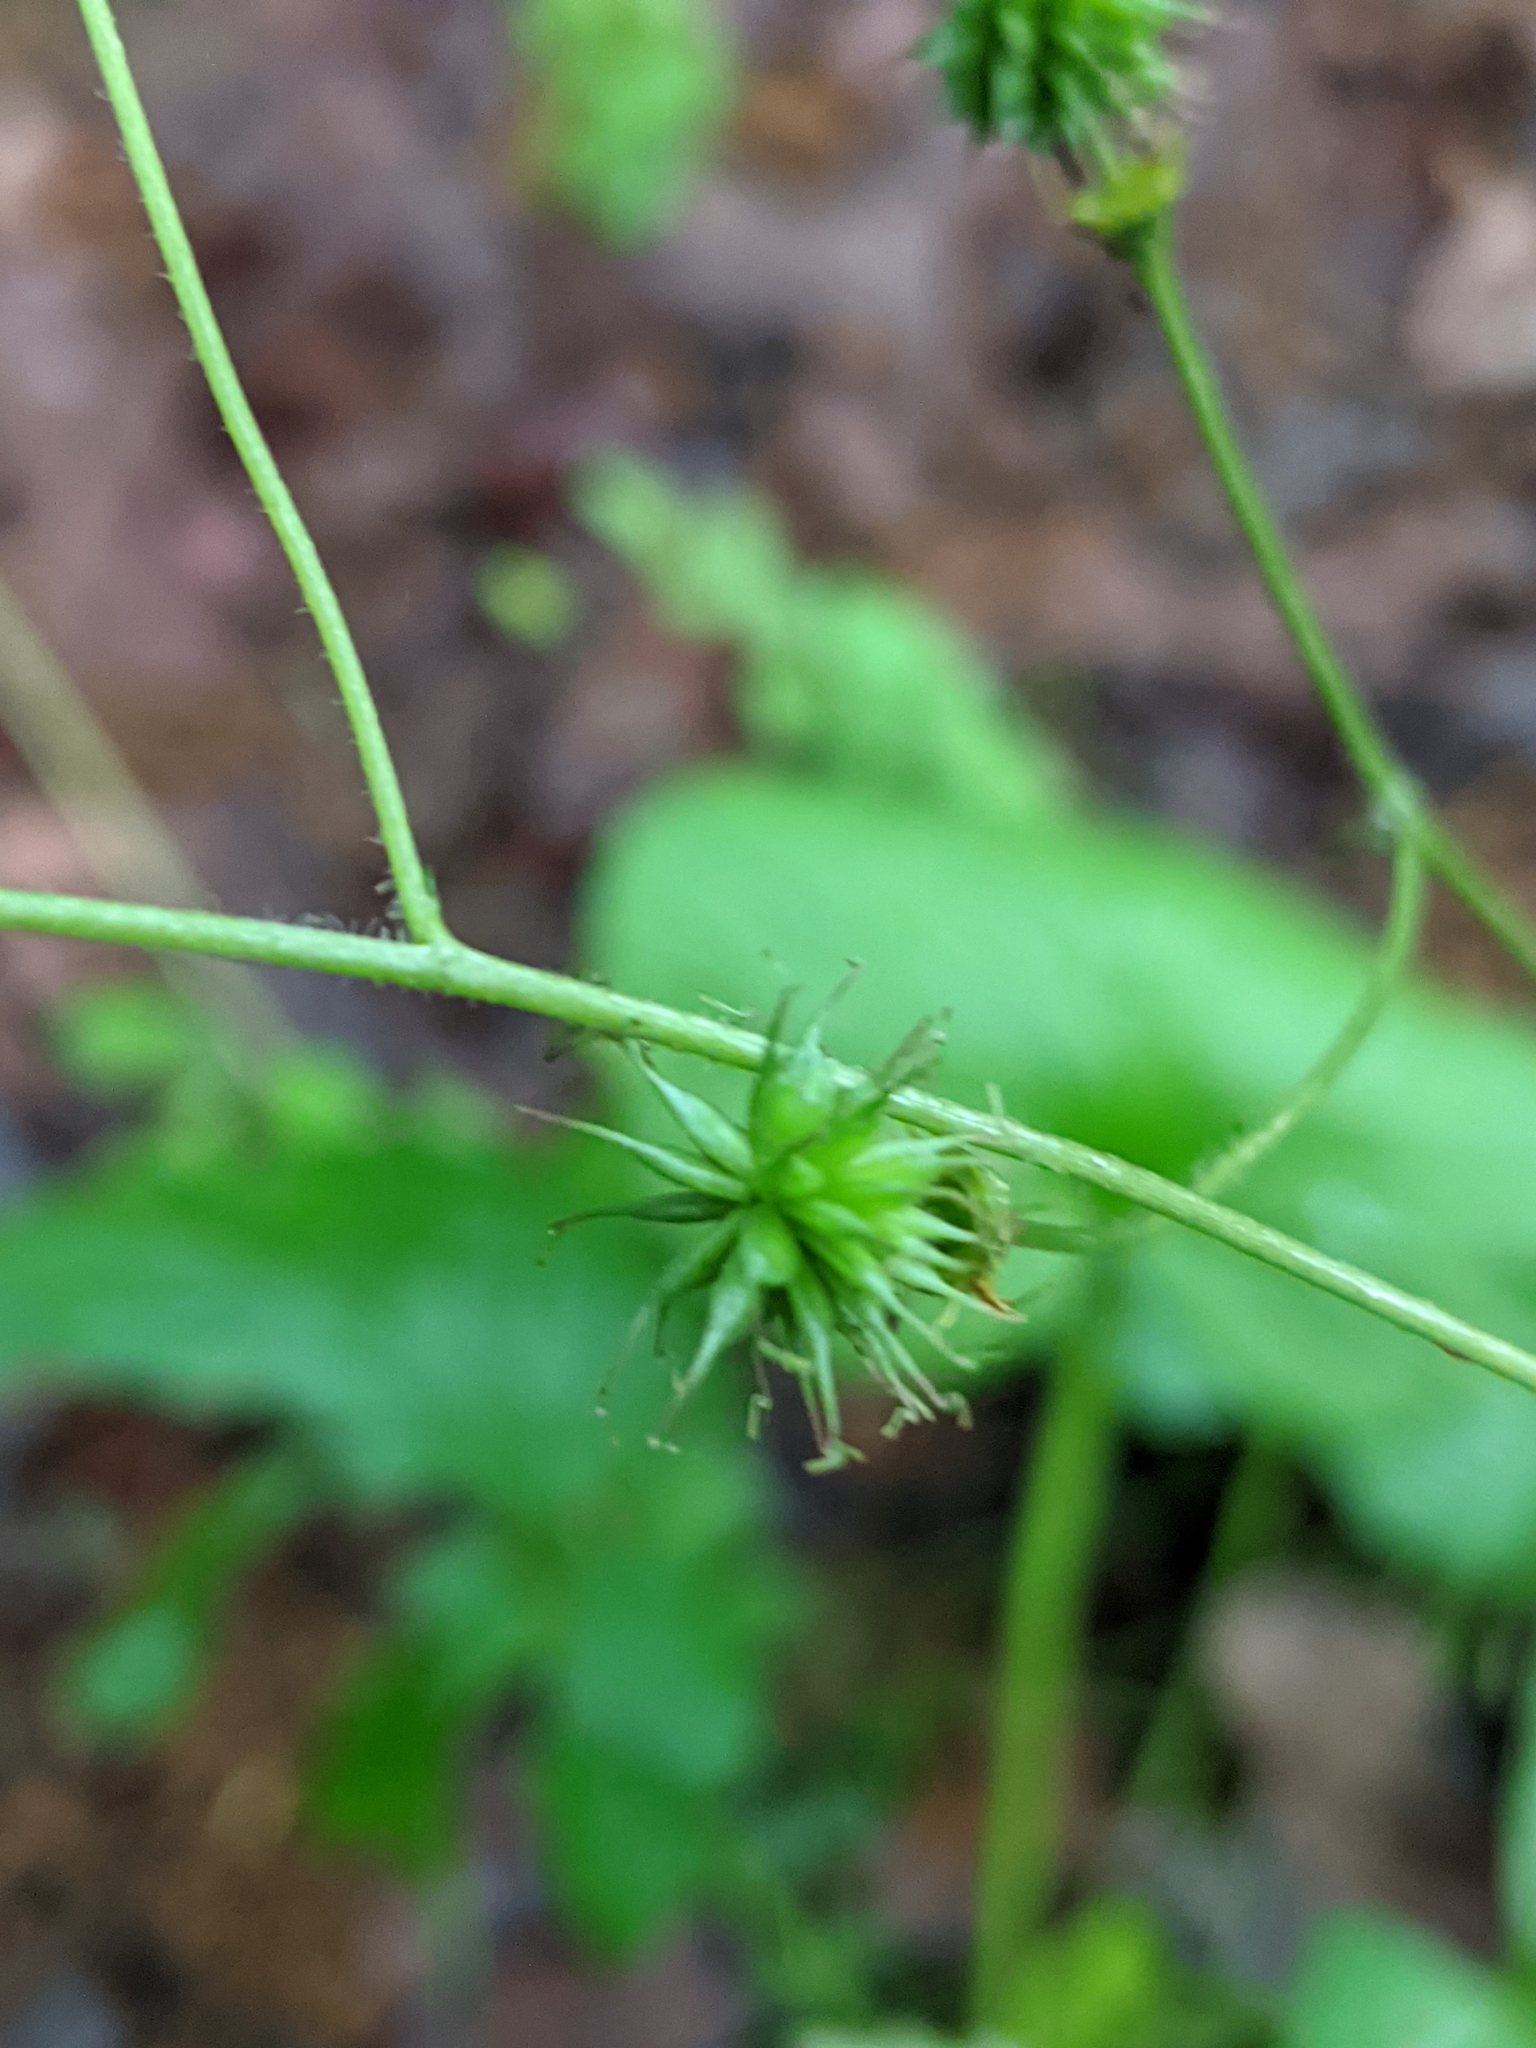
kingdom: Plantae
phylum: Tracheophyta
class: Magnoliopsida
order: Rosales
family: Rosaceae
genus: Geum
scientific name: Geum vernum
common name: Spring avens
